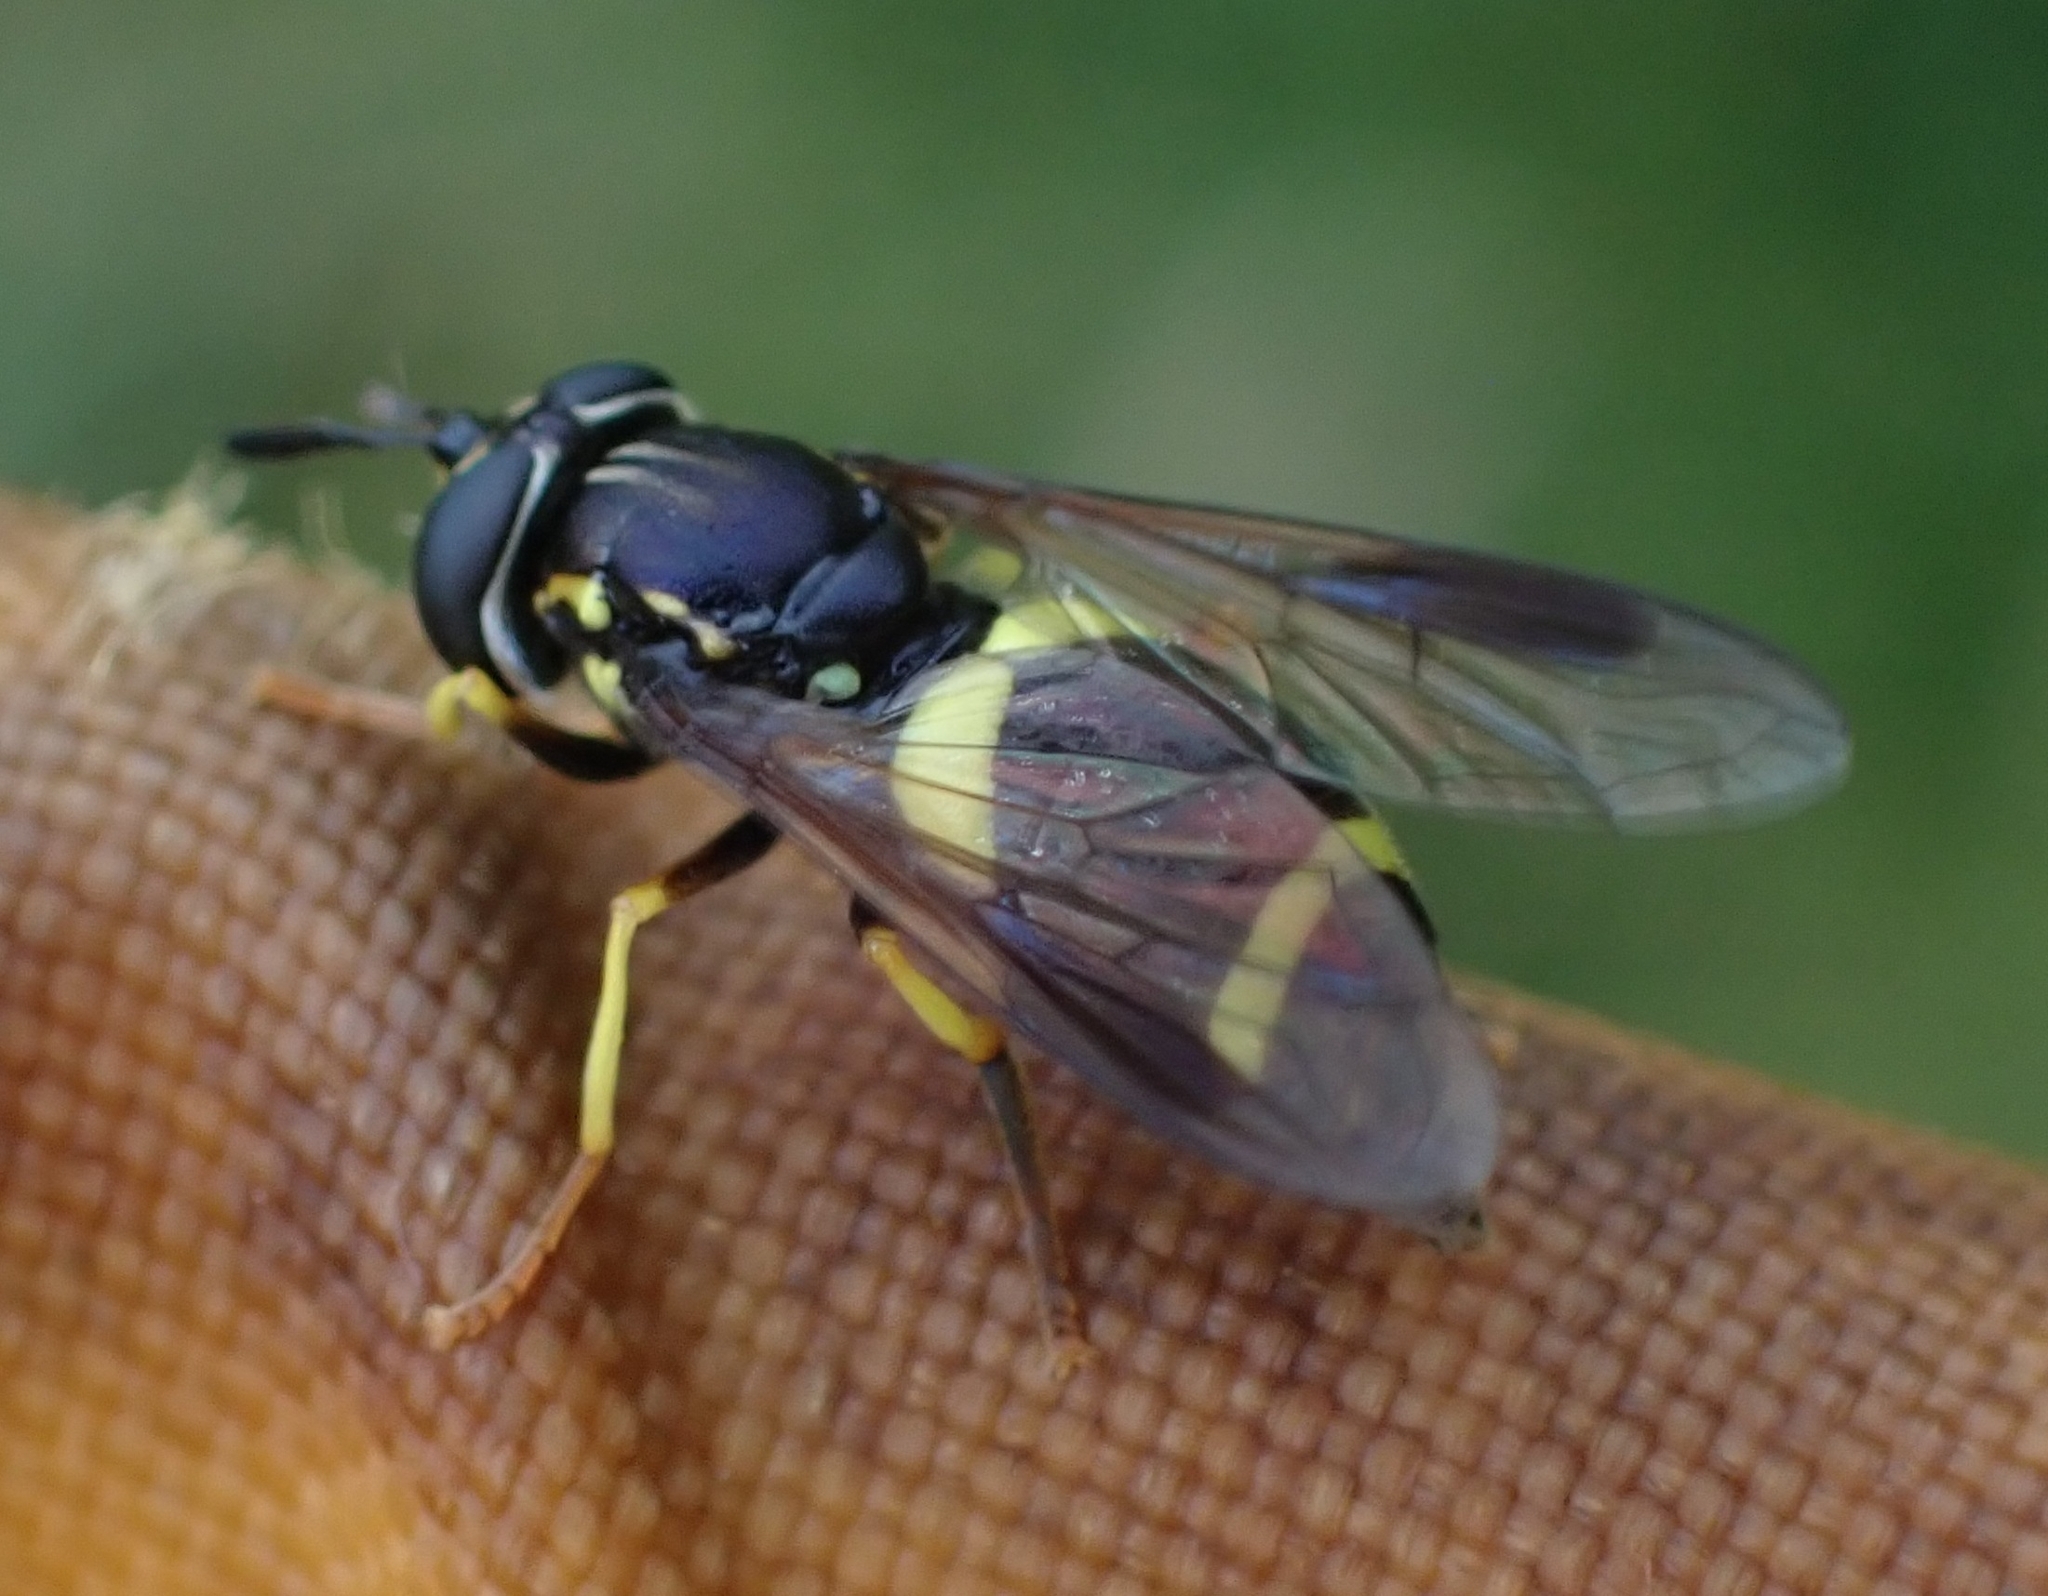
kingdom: Animalia
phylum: Arthropoda
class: Insecta
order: Diptera
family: Syrphidae
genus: Chrysotoxum
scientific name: Chrysotoxum bicincta
